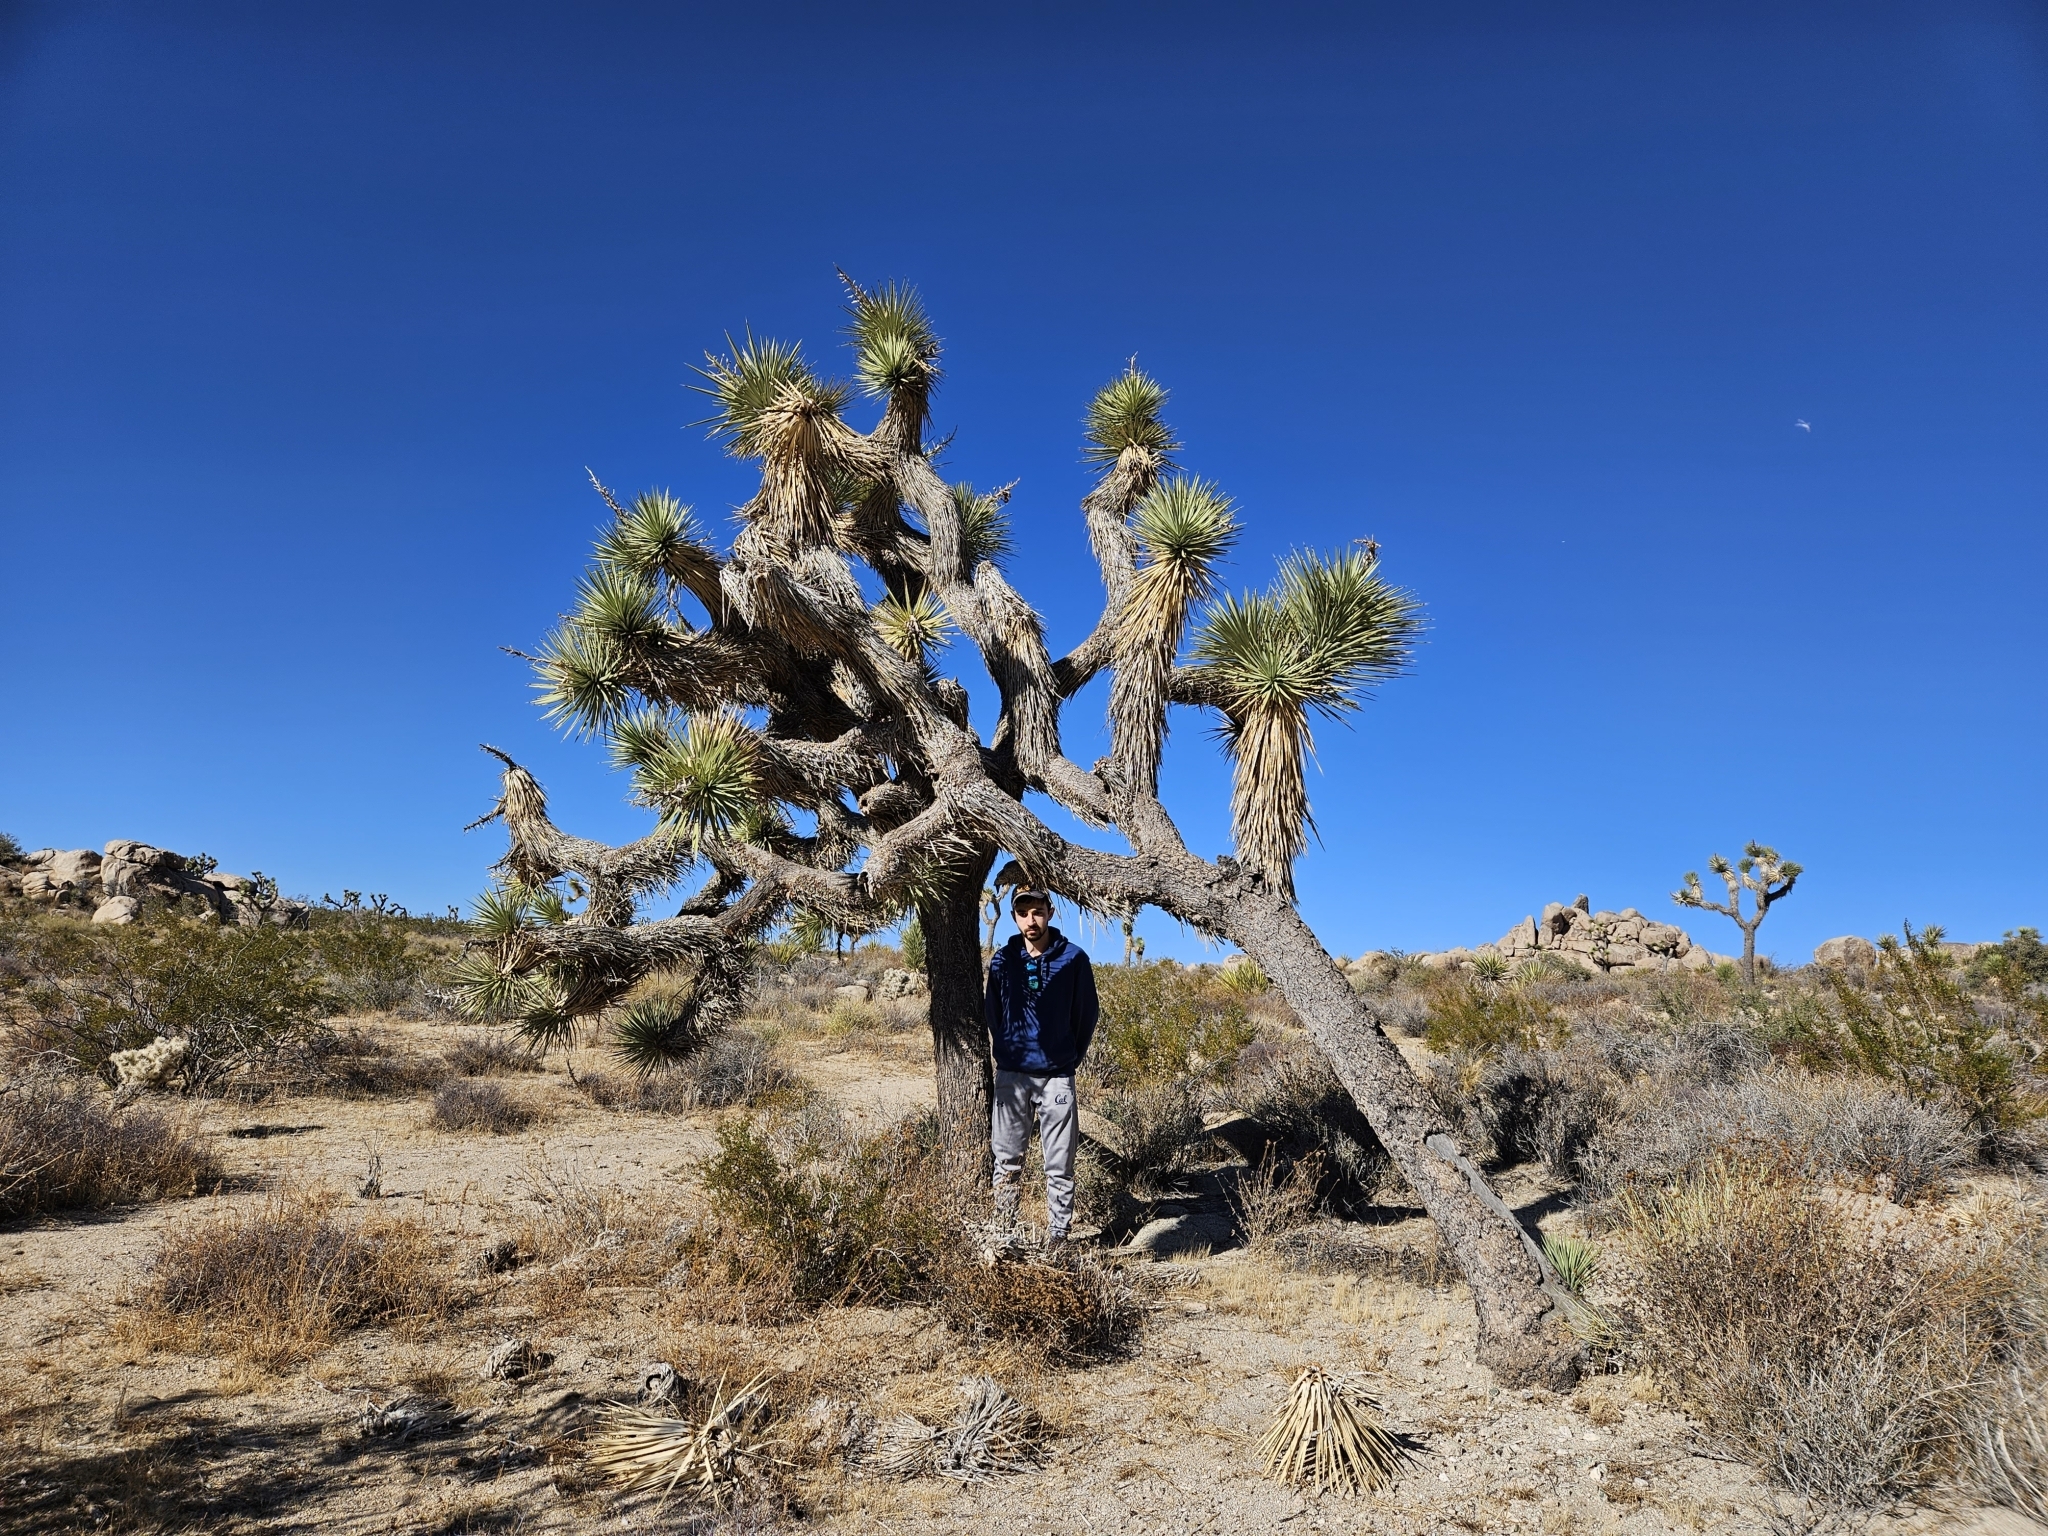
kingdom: Plantae
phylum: Tracheophyta
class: Liliopsida
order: Asparagales
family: Asparagaceae
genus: Yucca
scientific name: Yucca brevifolia
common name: Joshua tree
